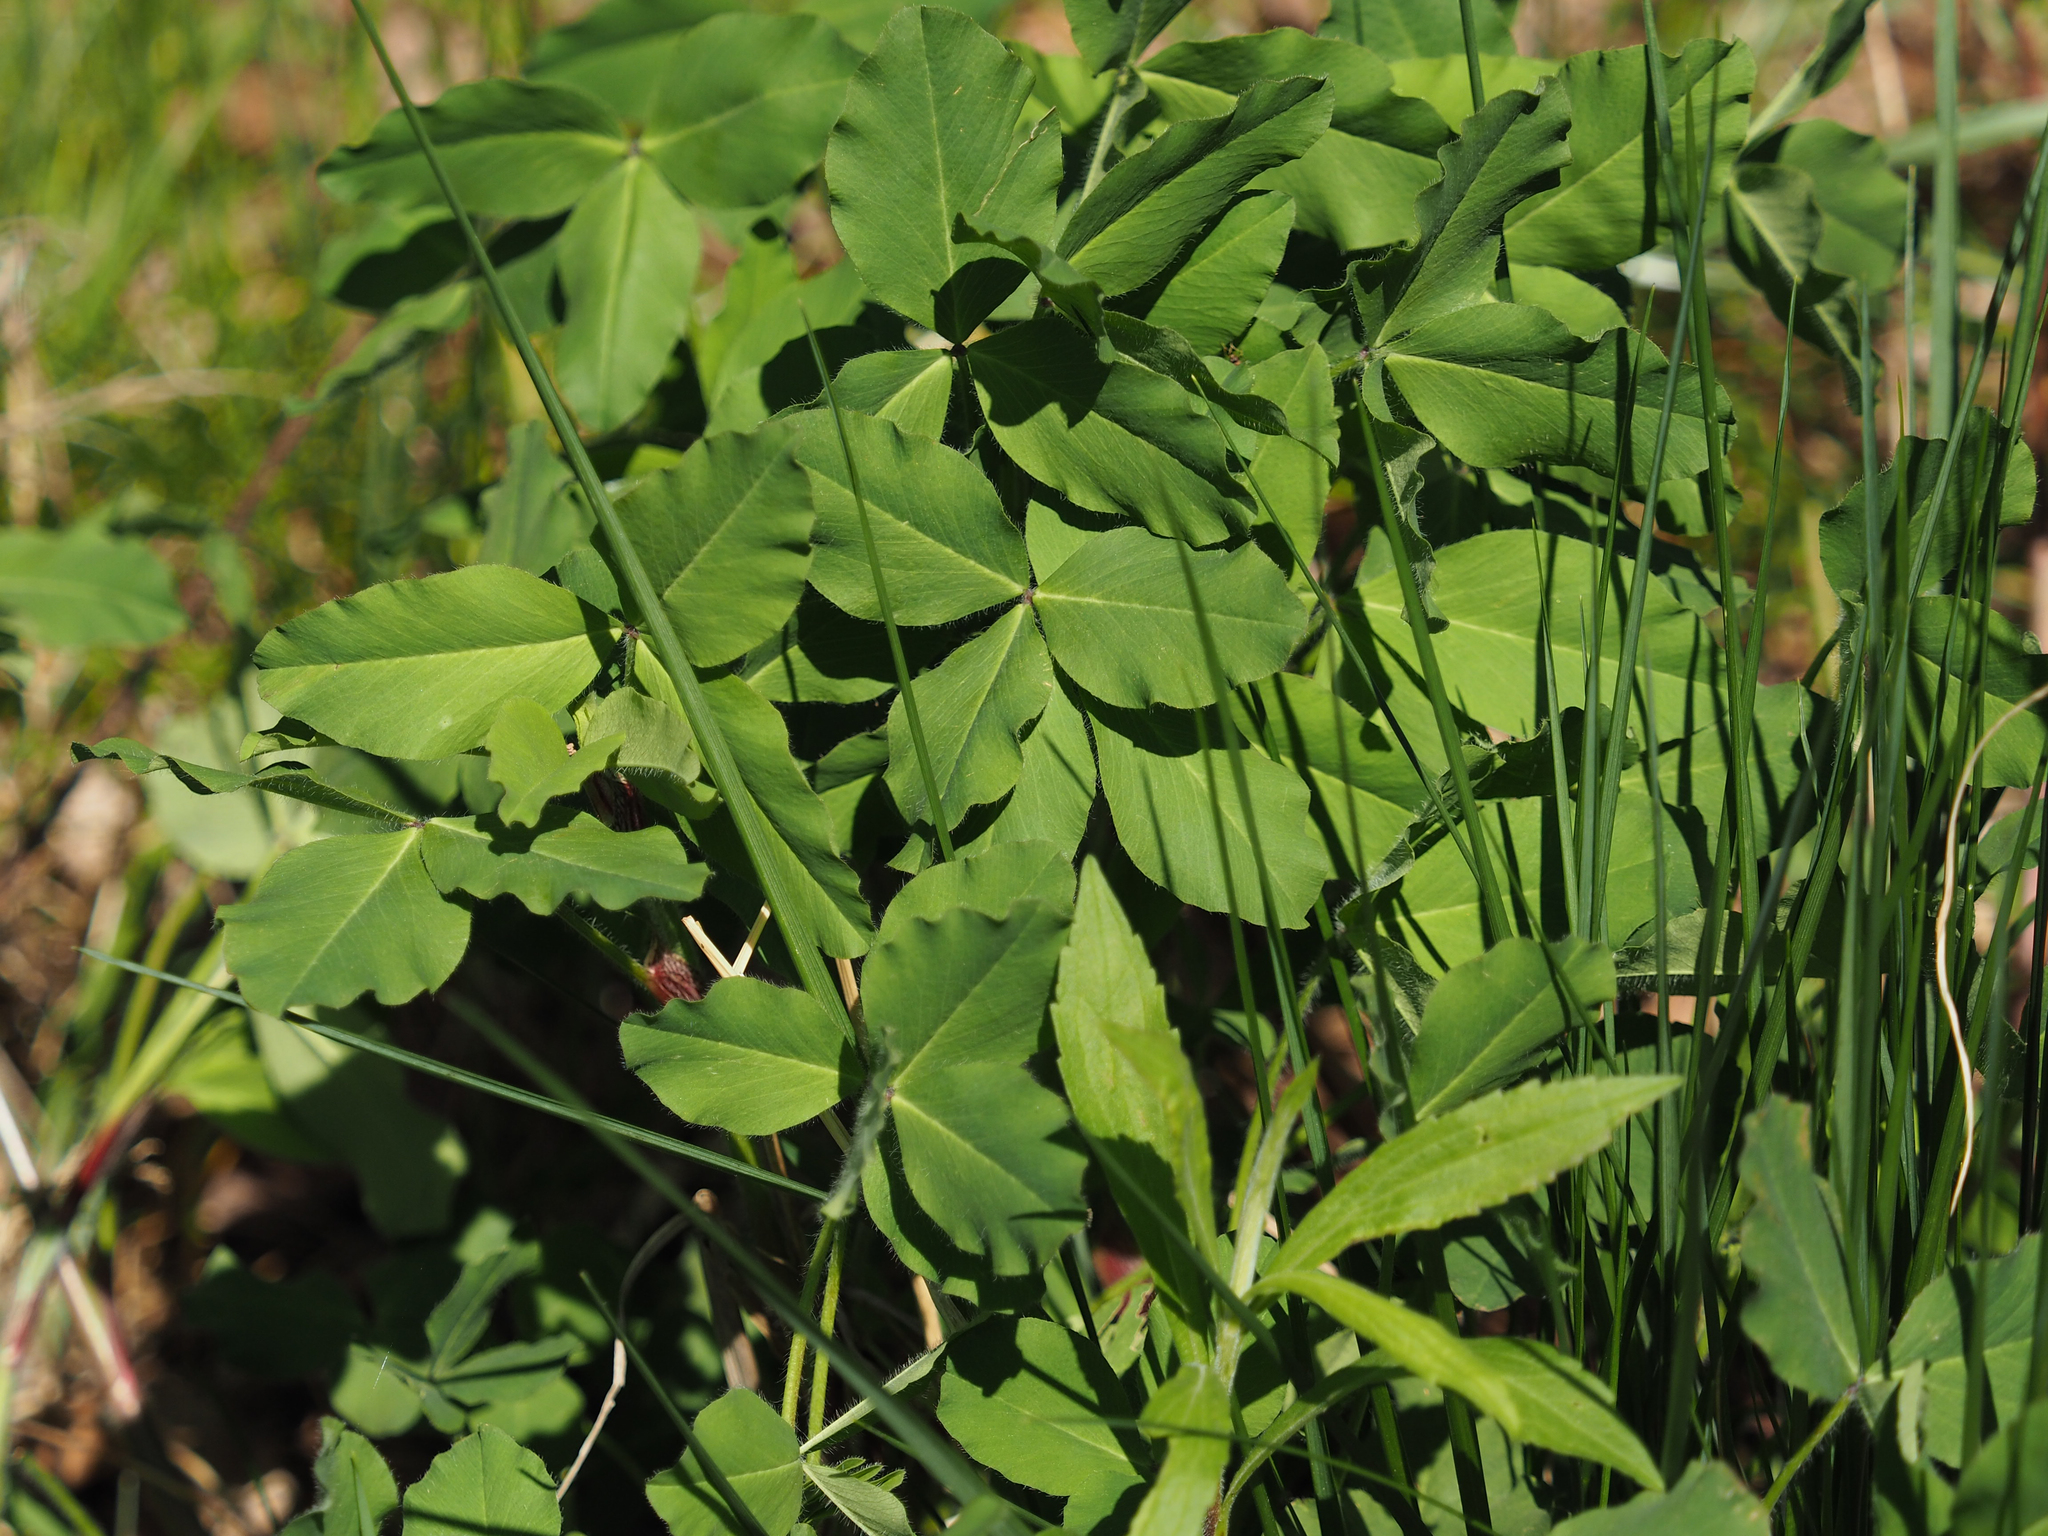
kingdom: Plantae
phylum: Tracheophyta
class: Magnoliopsida
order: Fabales
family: Fabaceae
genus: Trifolium
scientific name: Trifolium pratense
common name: Red clover
